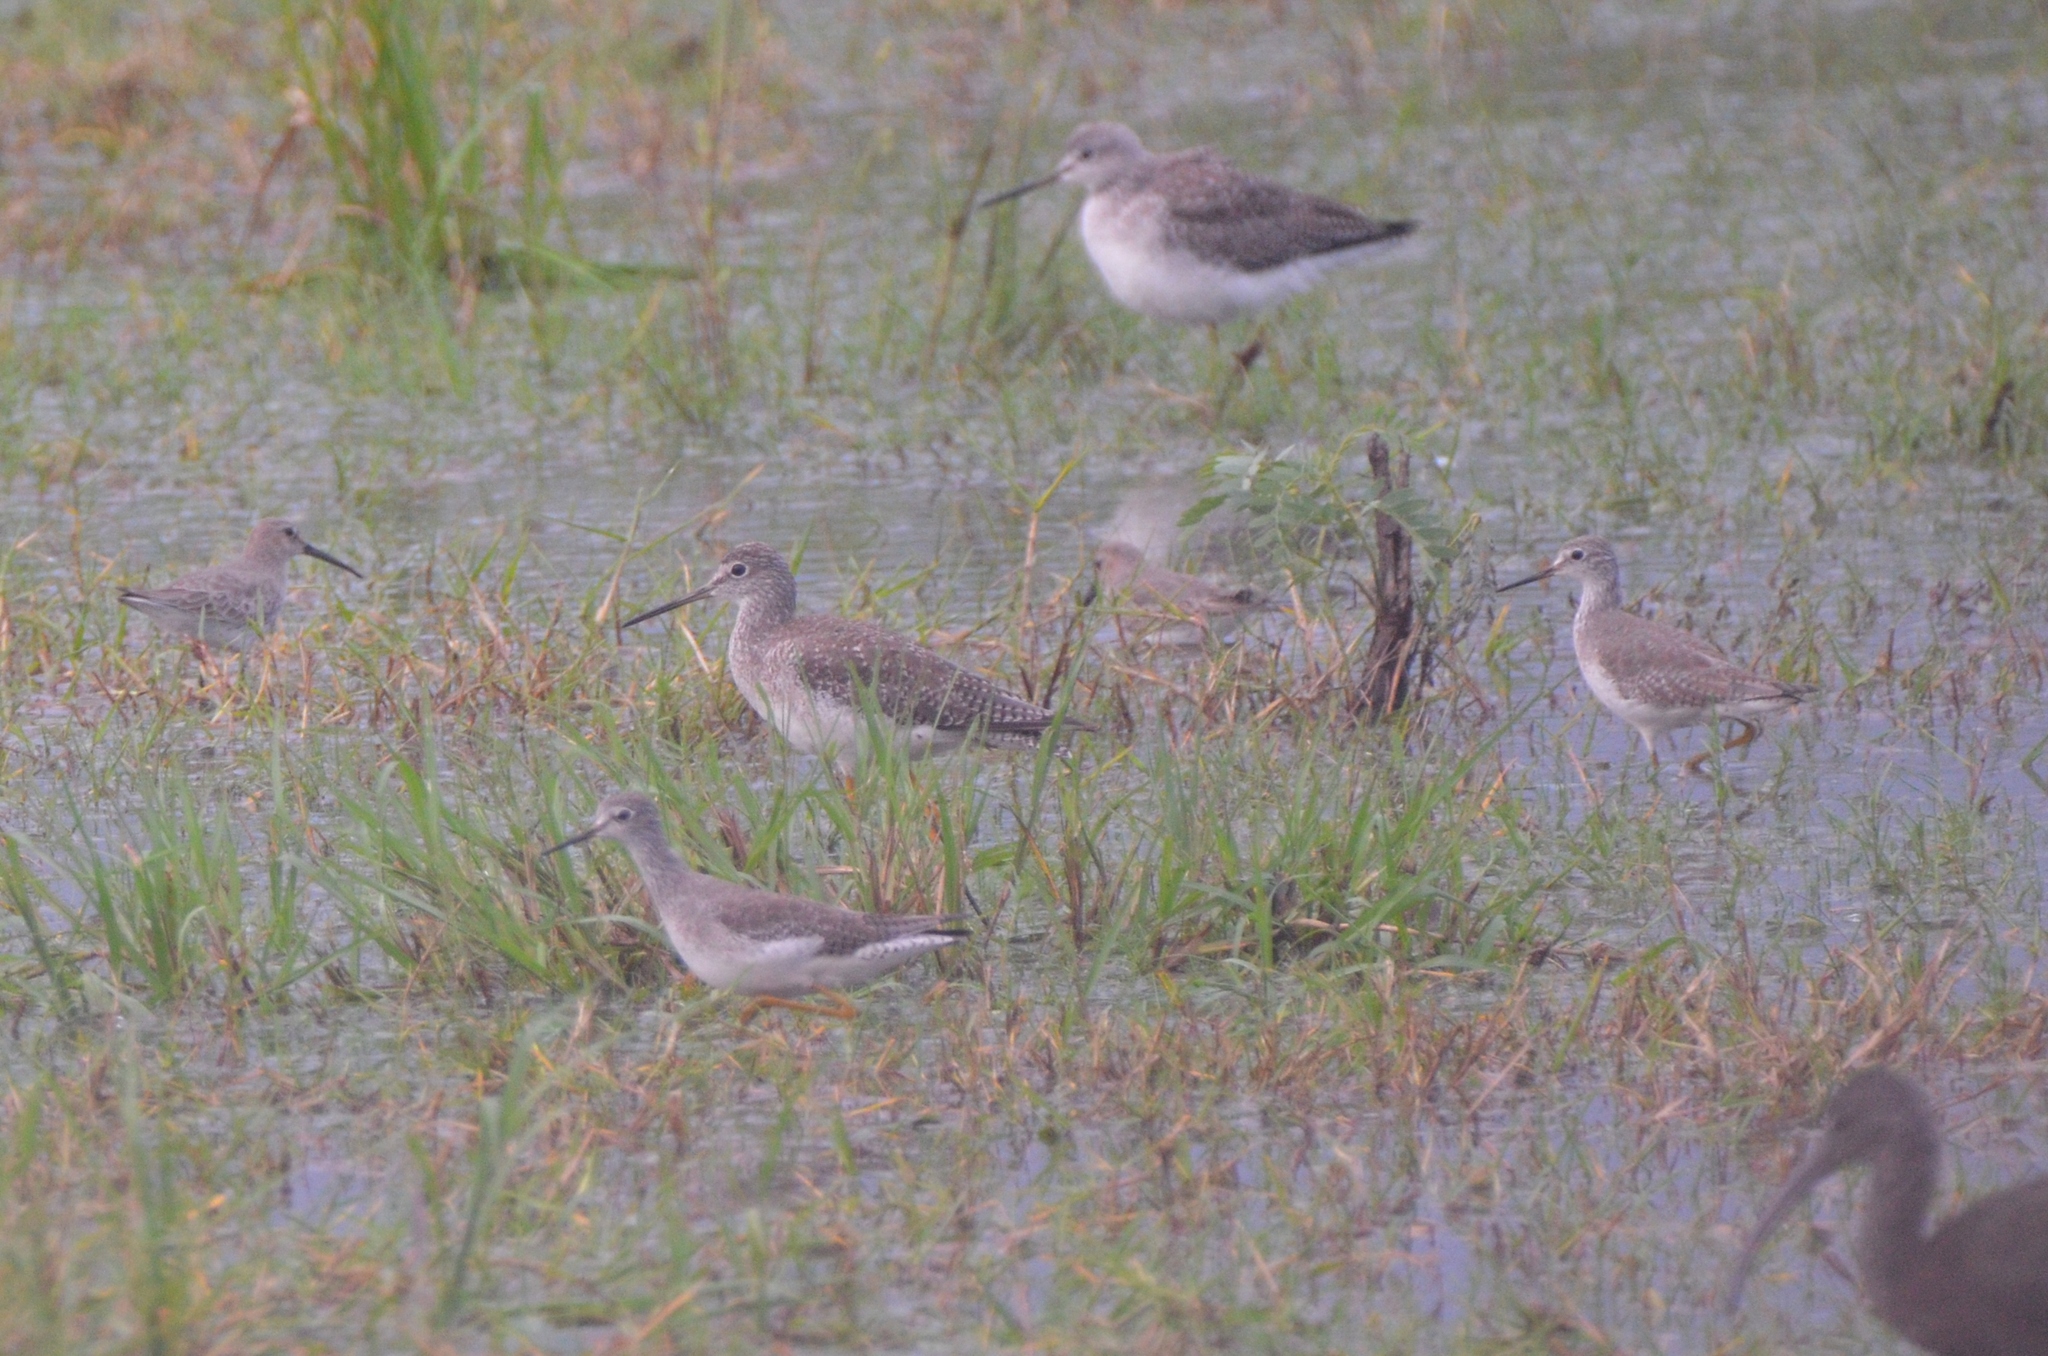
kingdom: Animalia
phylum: Chordata
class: Aves
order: Charadriiformes
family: Scolopacidae
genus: Calidris
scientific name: Calidris alpina
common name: Dunlin
